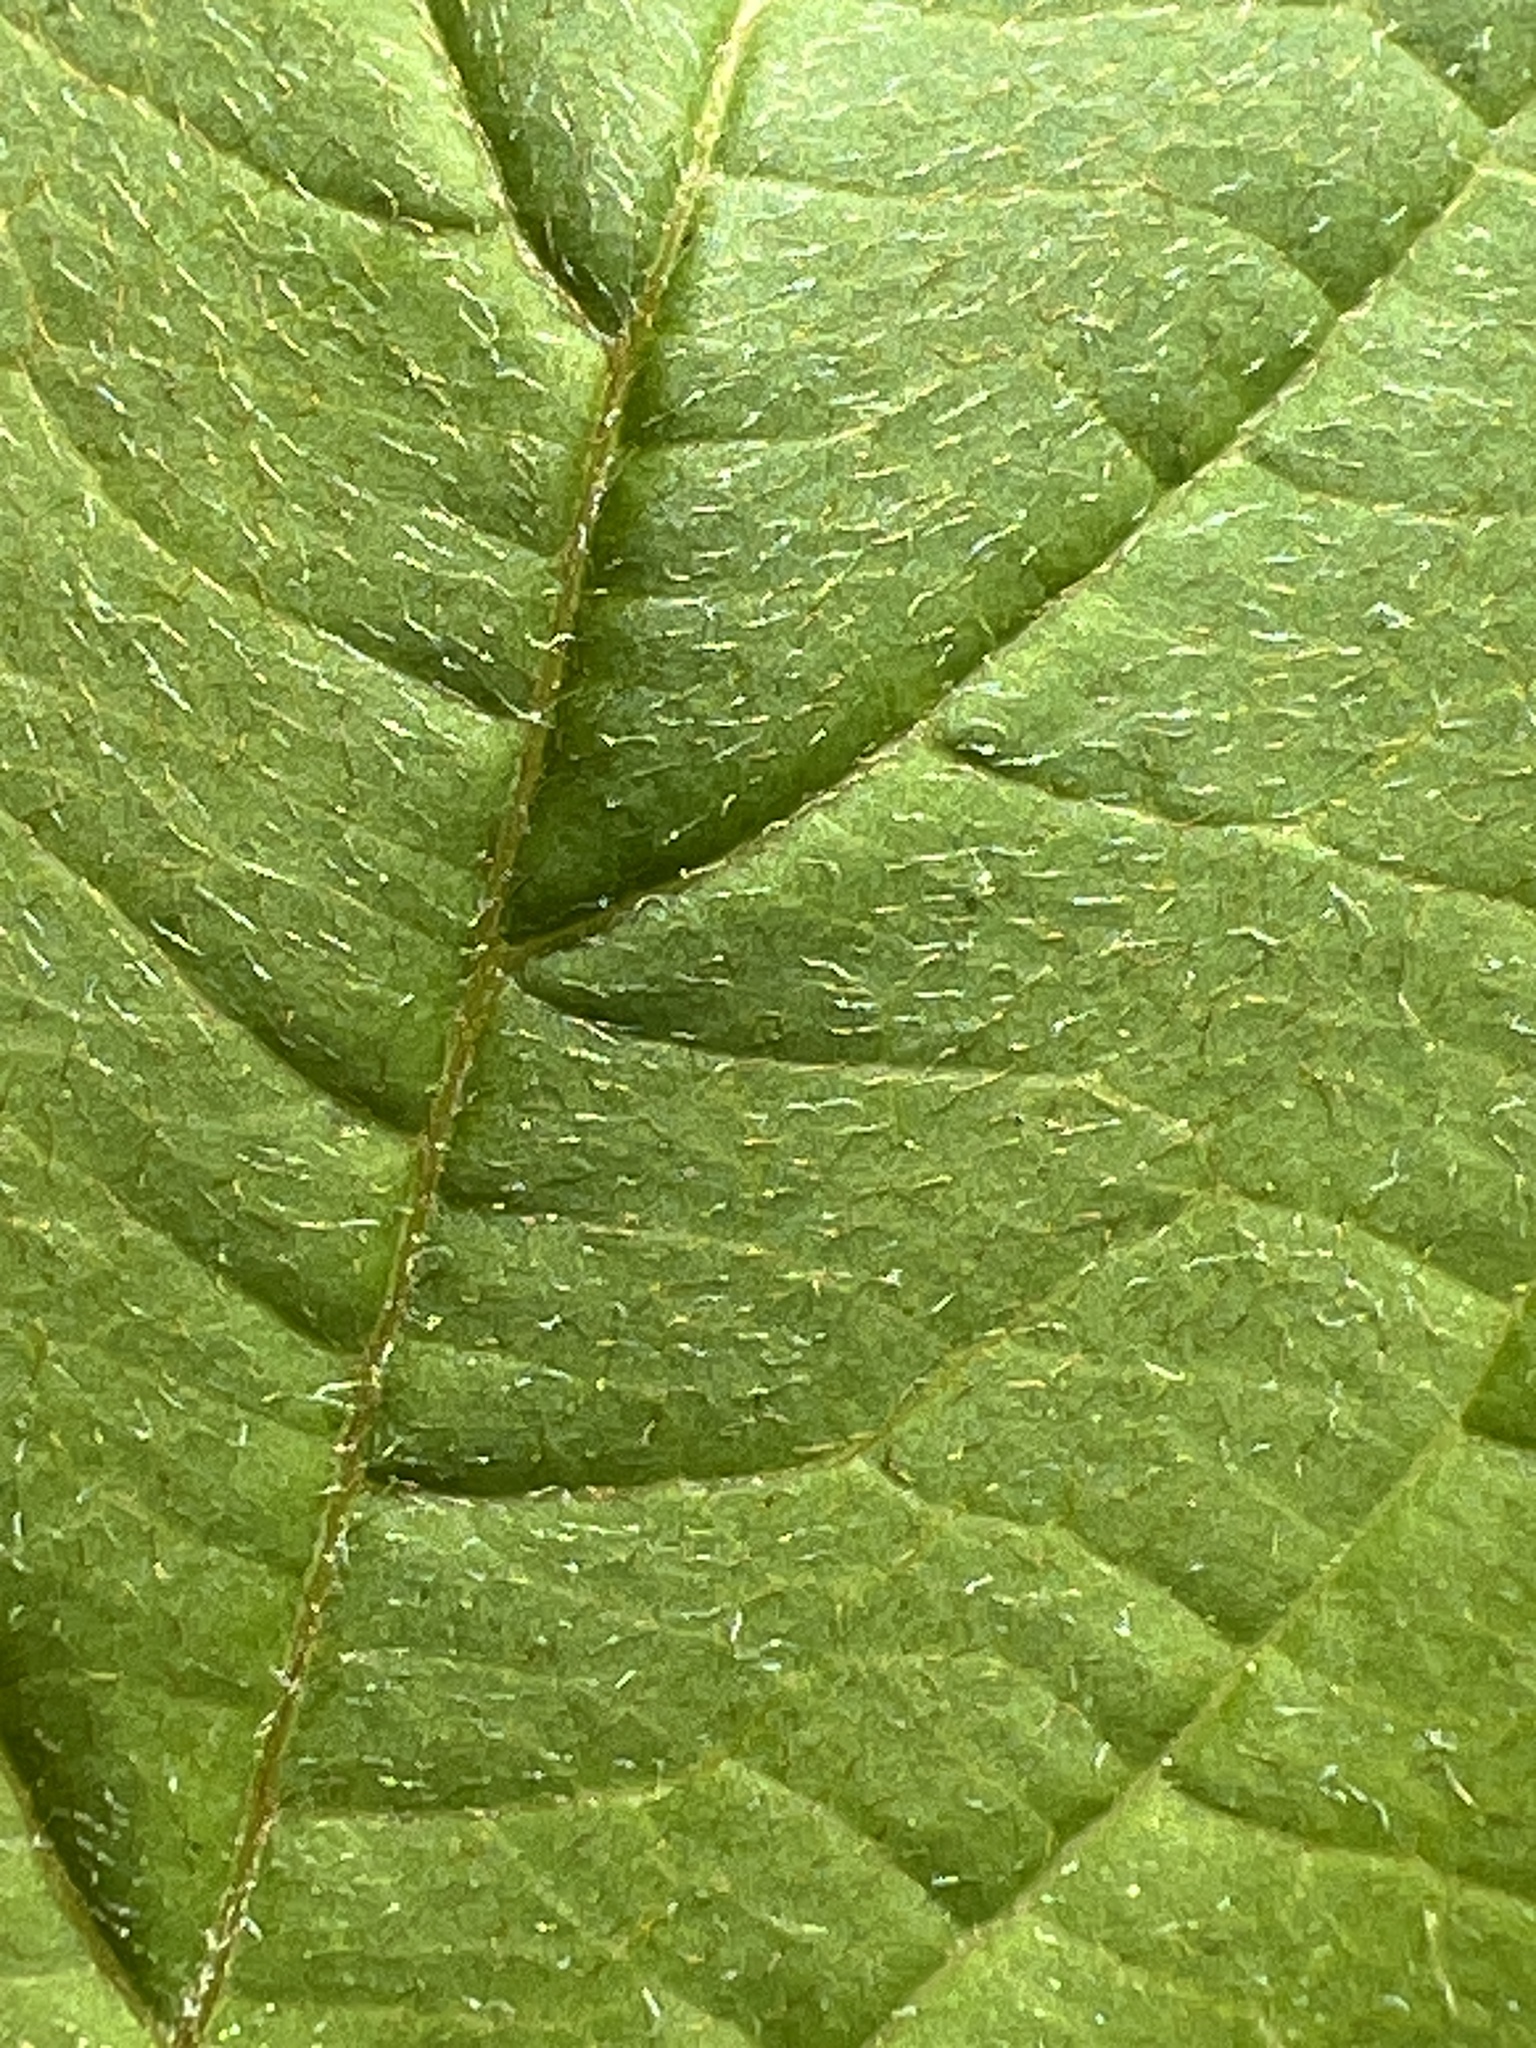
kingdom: Plantae
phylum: Tracheophyta
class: Magnoliopsida
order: Cornales
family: Cornaceae
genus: Cornus
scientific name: Cornus amomum
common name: Silky dogwood
